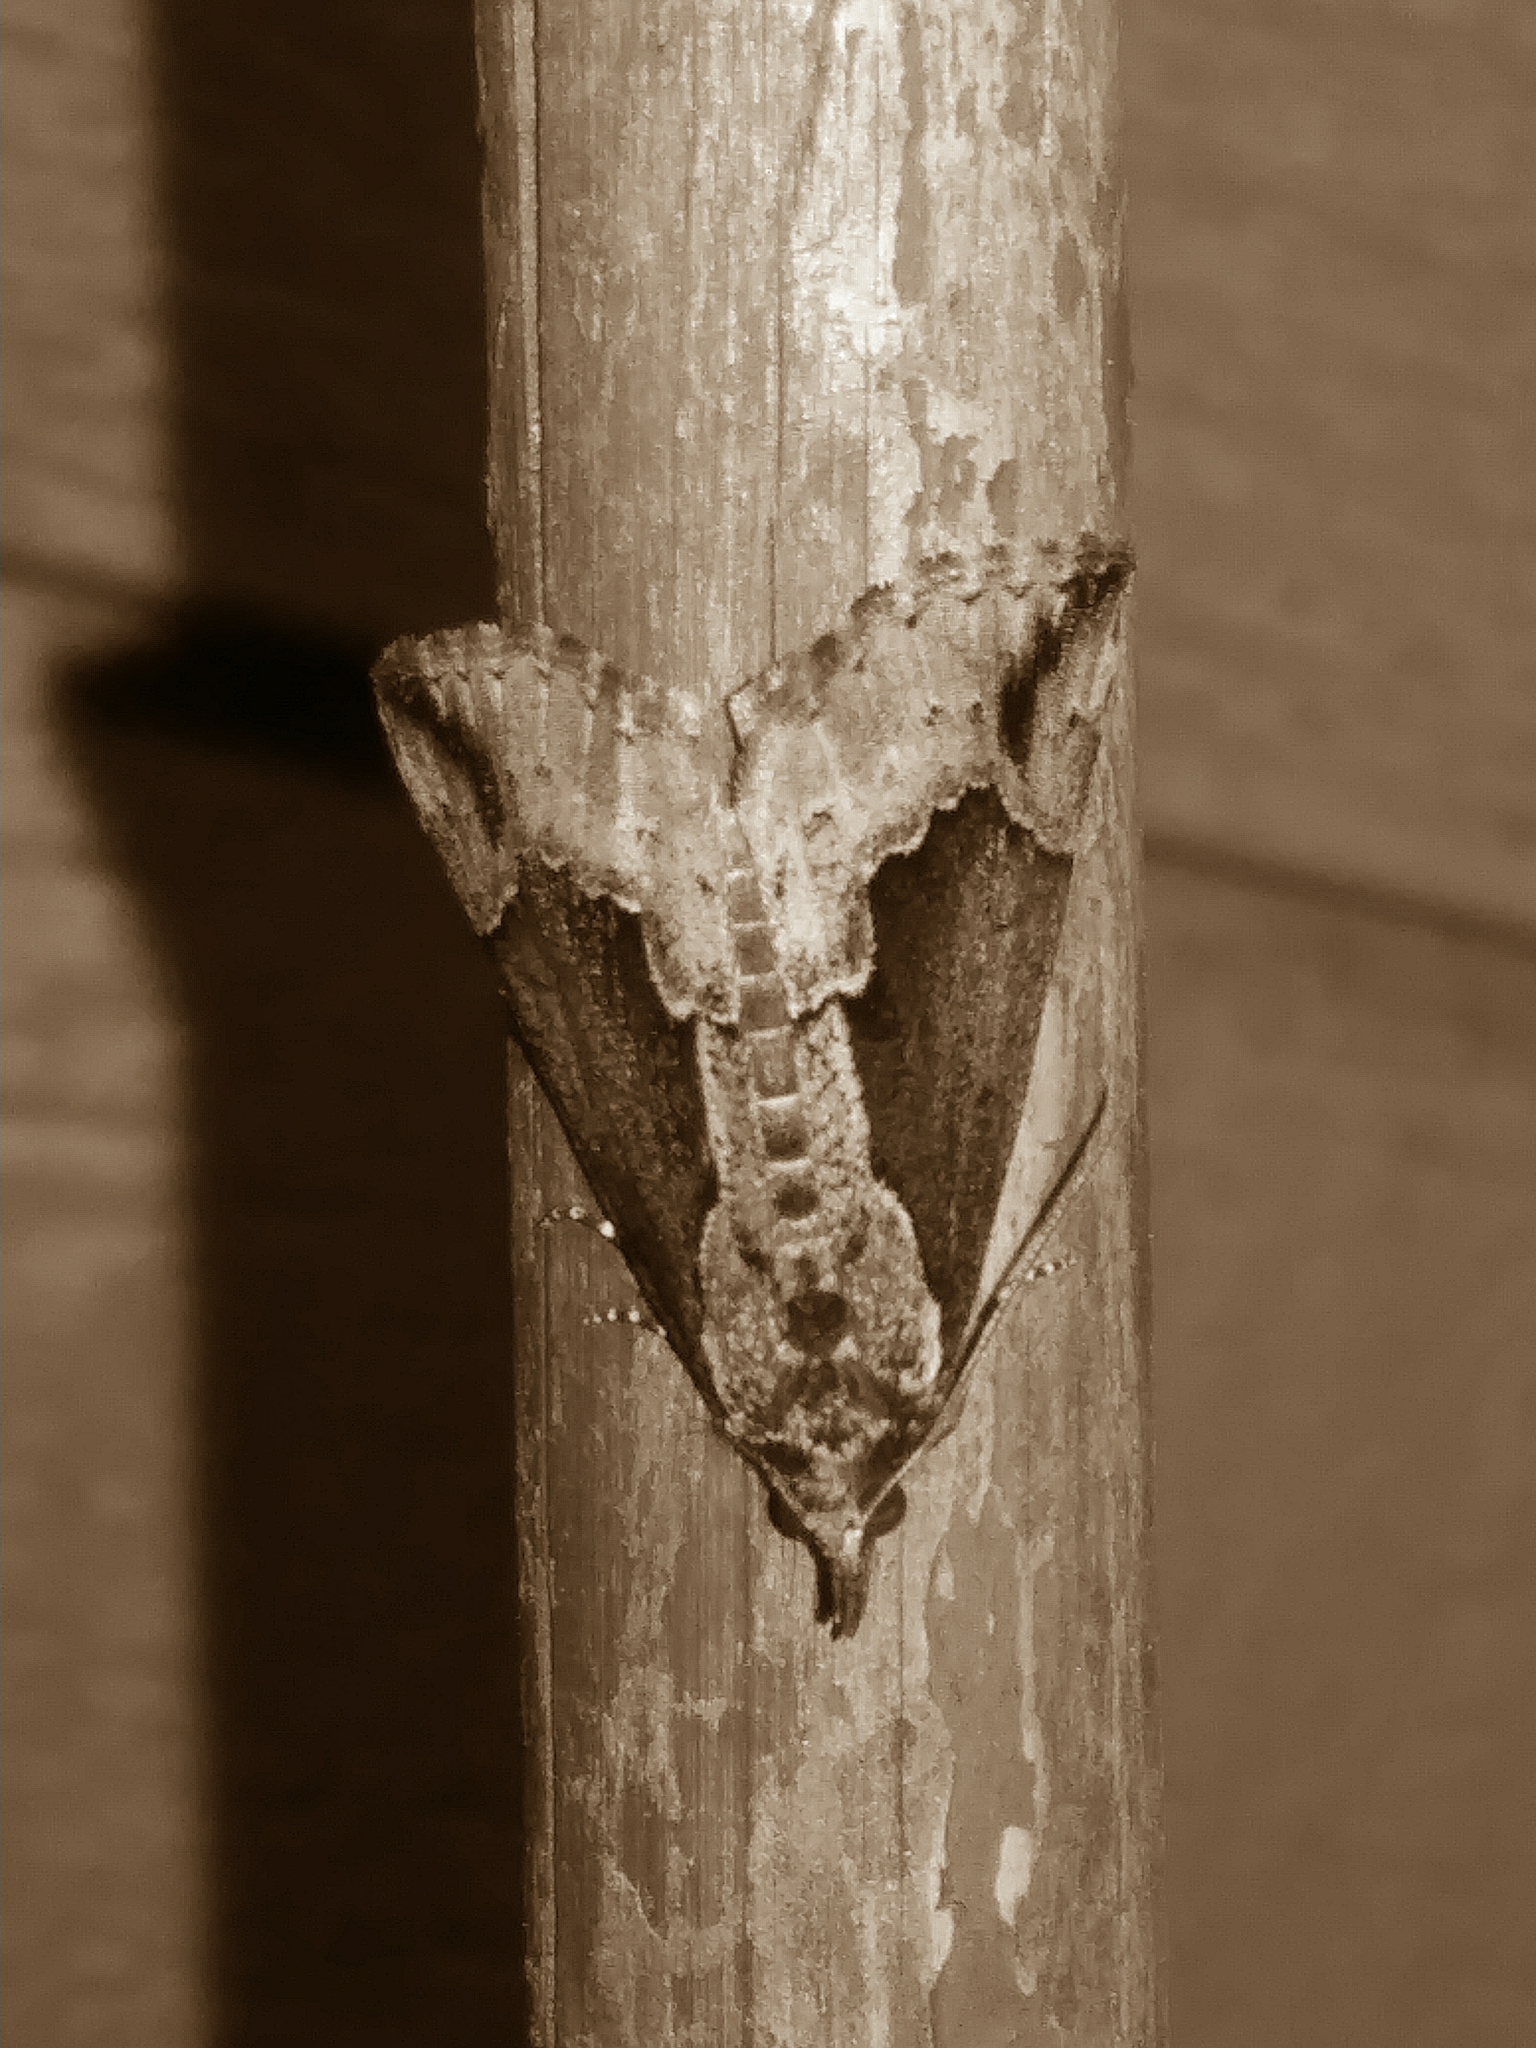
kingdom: Animalia
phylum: Arthropoda
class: Insecta
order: Lepidoptera
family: Erebidae
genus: Hypena
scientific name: Hypena baltimoralis
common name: Baltimore snout
